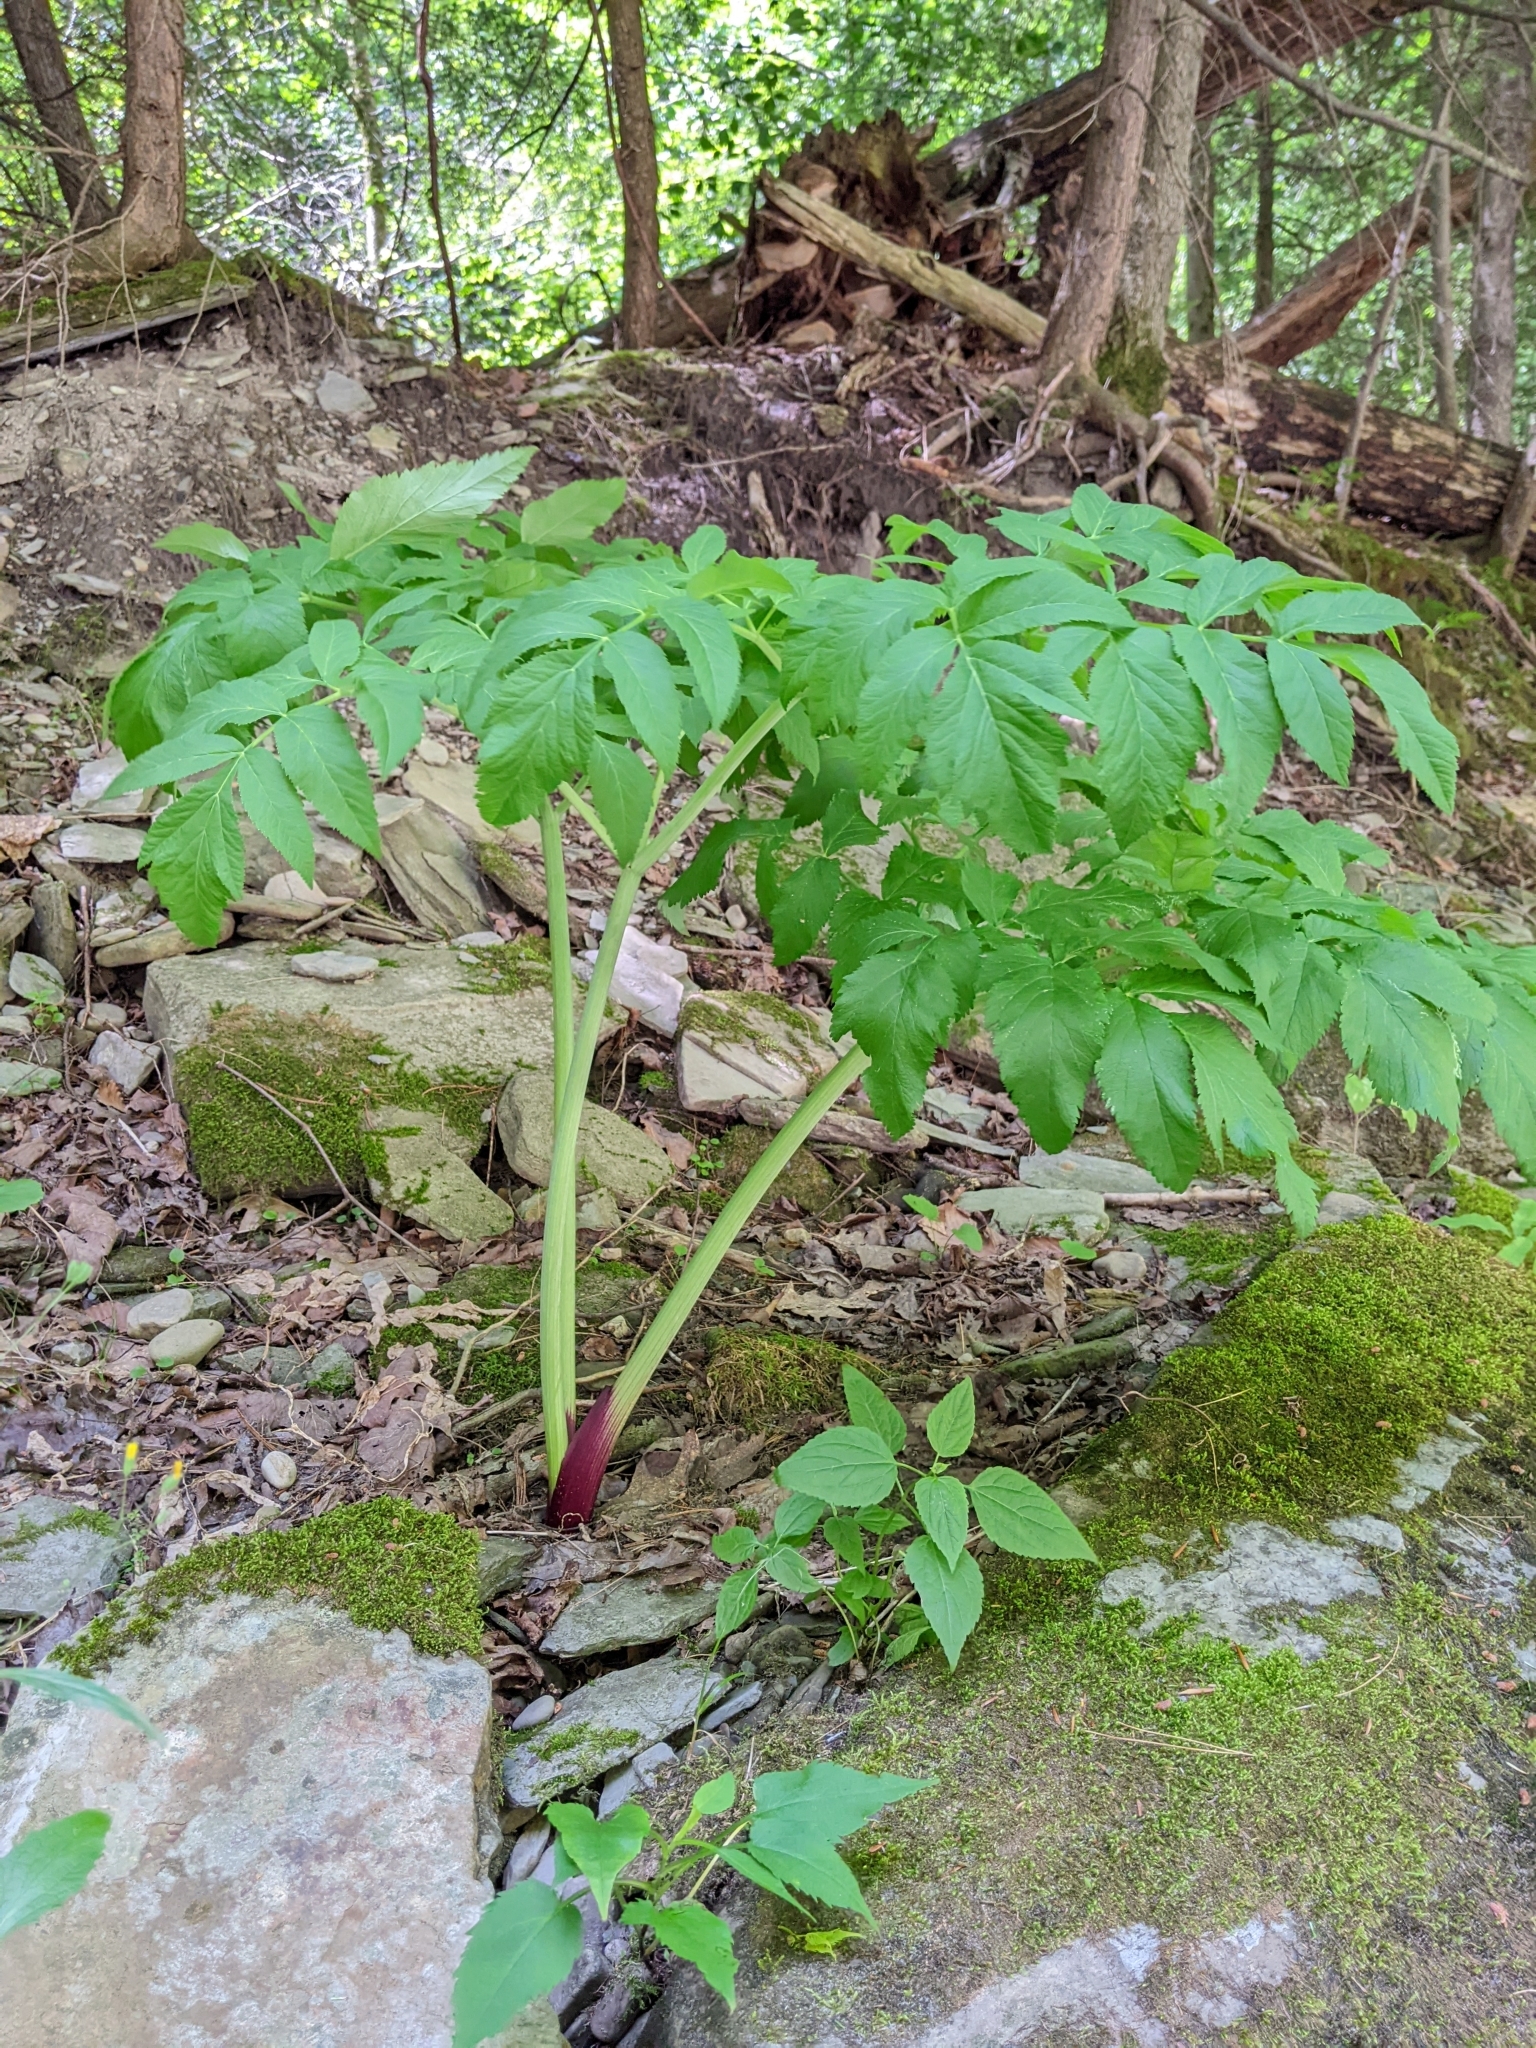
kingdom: Plantae
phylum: Tracheophyta
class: Magnoliopsida
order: Apiales
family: Apiaceae
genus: Angelica
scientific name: Angelica atropurpurea
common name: Great angelica
